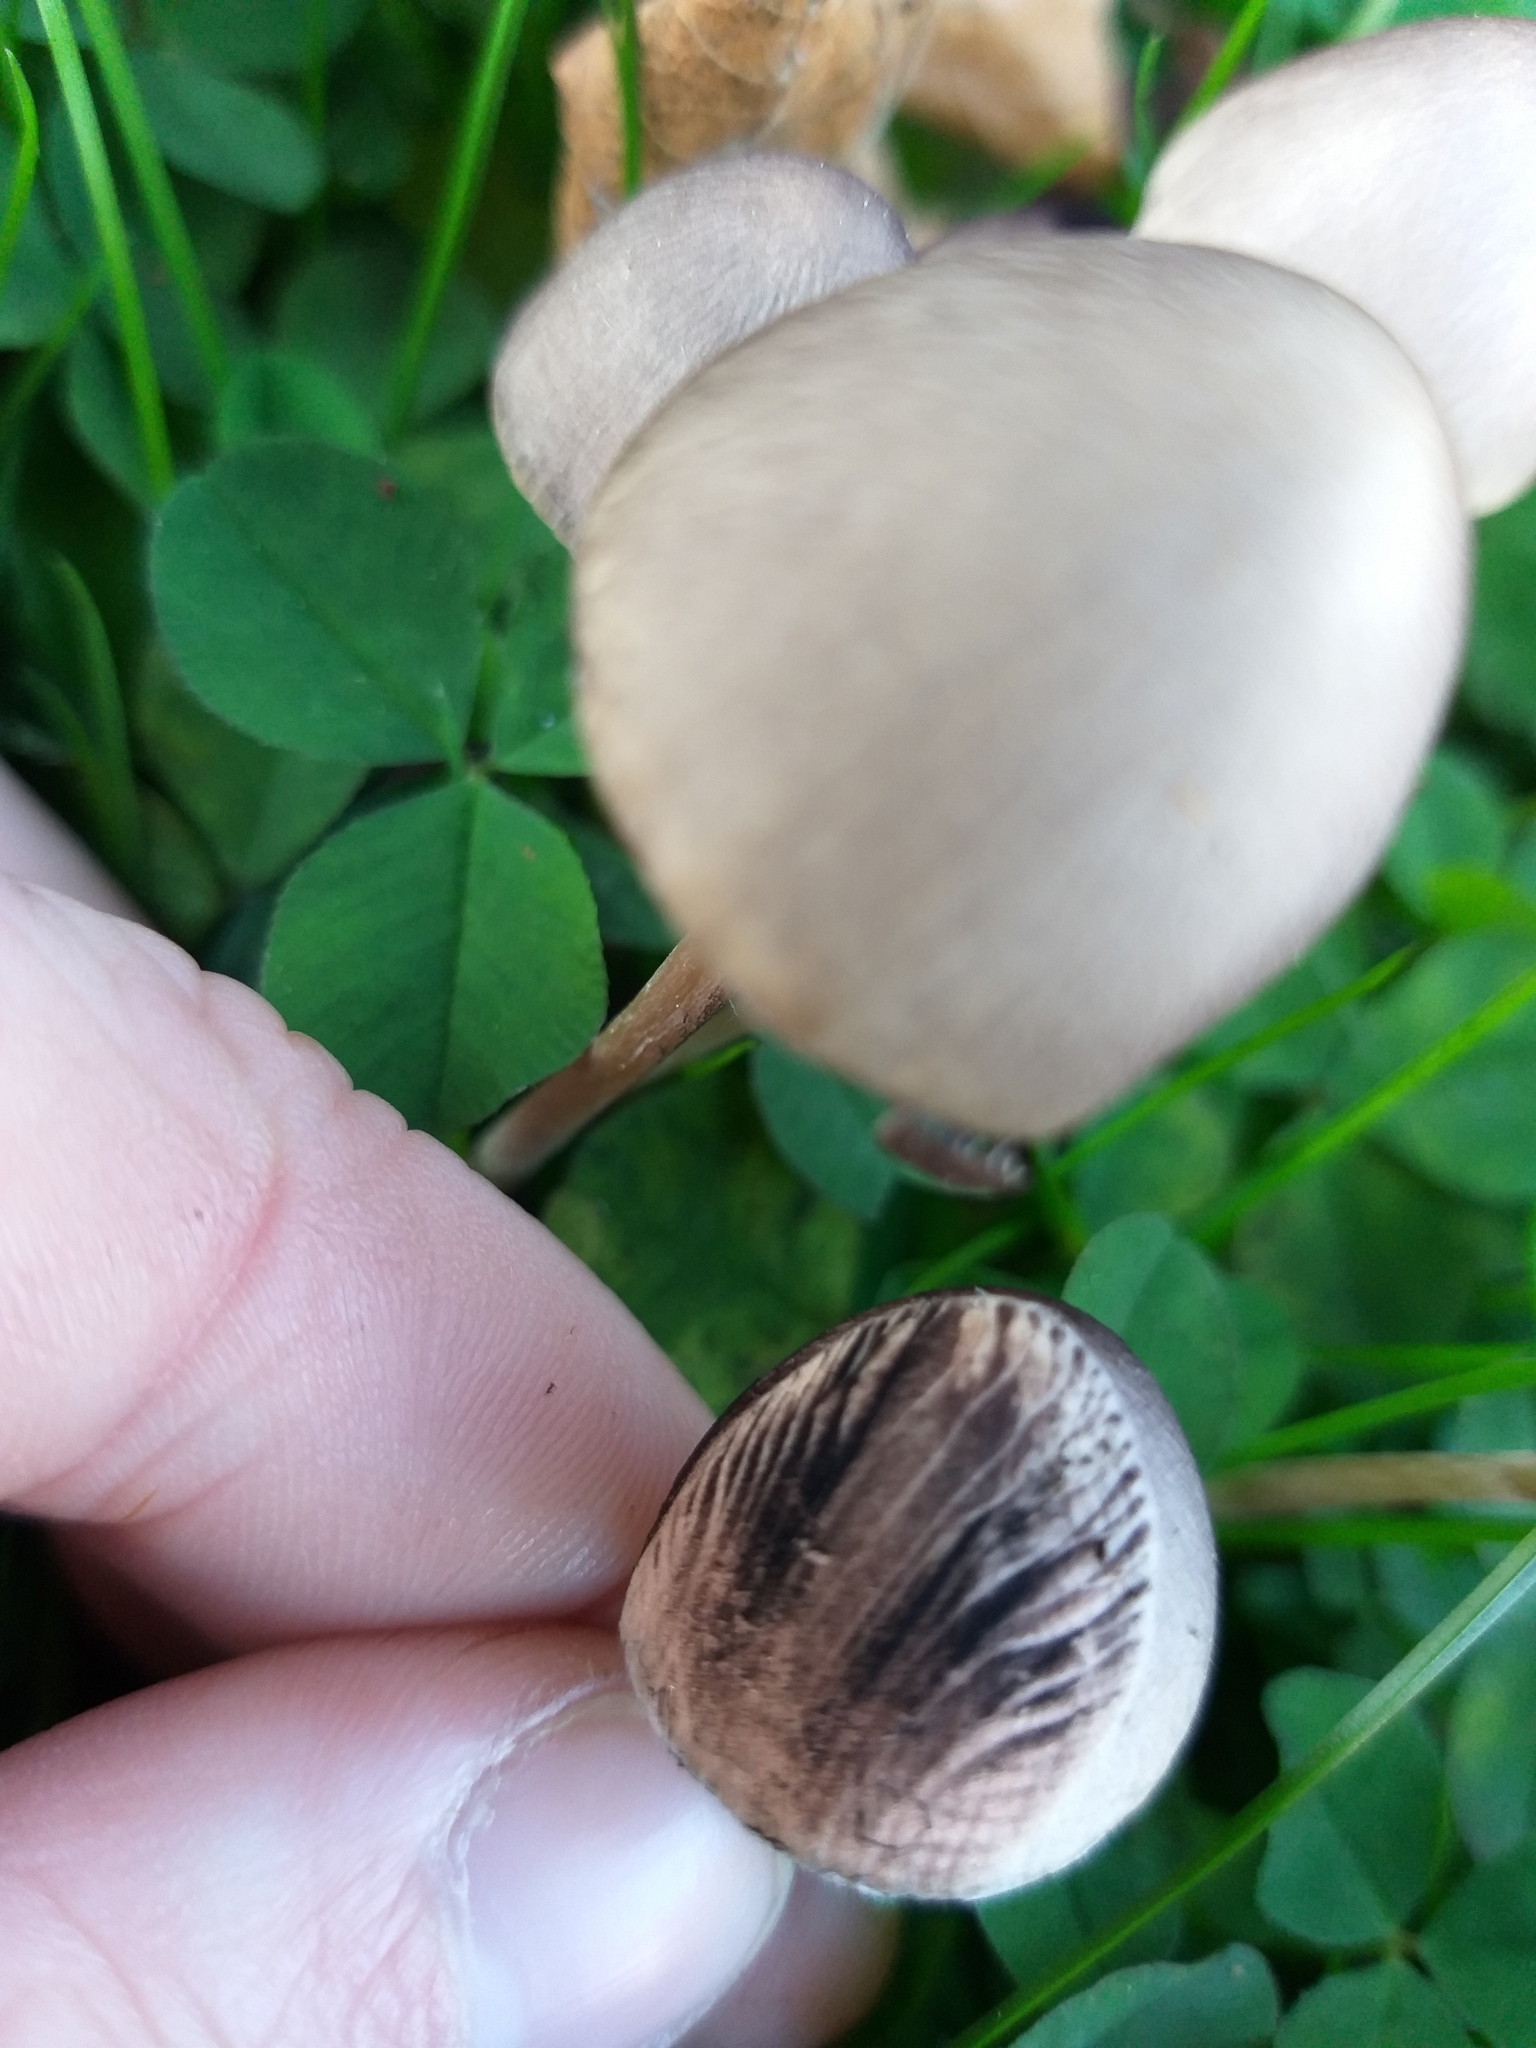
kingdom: Fungi
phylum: Basidiomycota
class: Agaricomycetes
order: Agaricales
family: Bolbitiaceae
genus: Panaeolus
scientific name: Panaeolus papilionaceus
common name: Petticoat mottlegill
